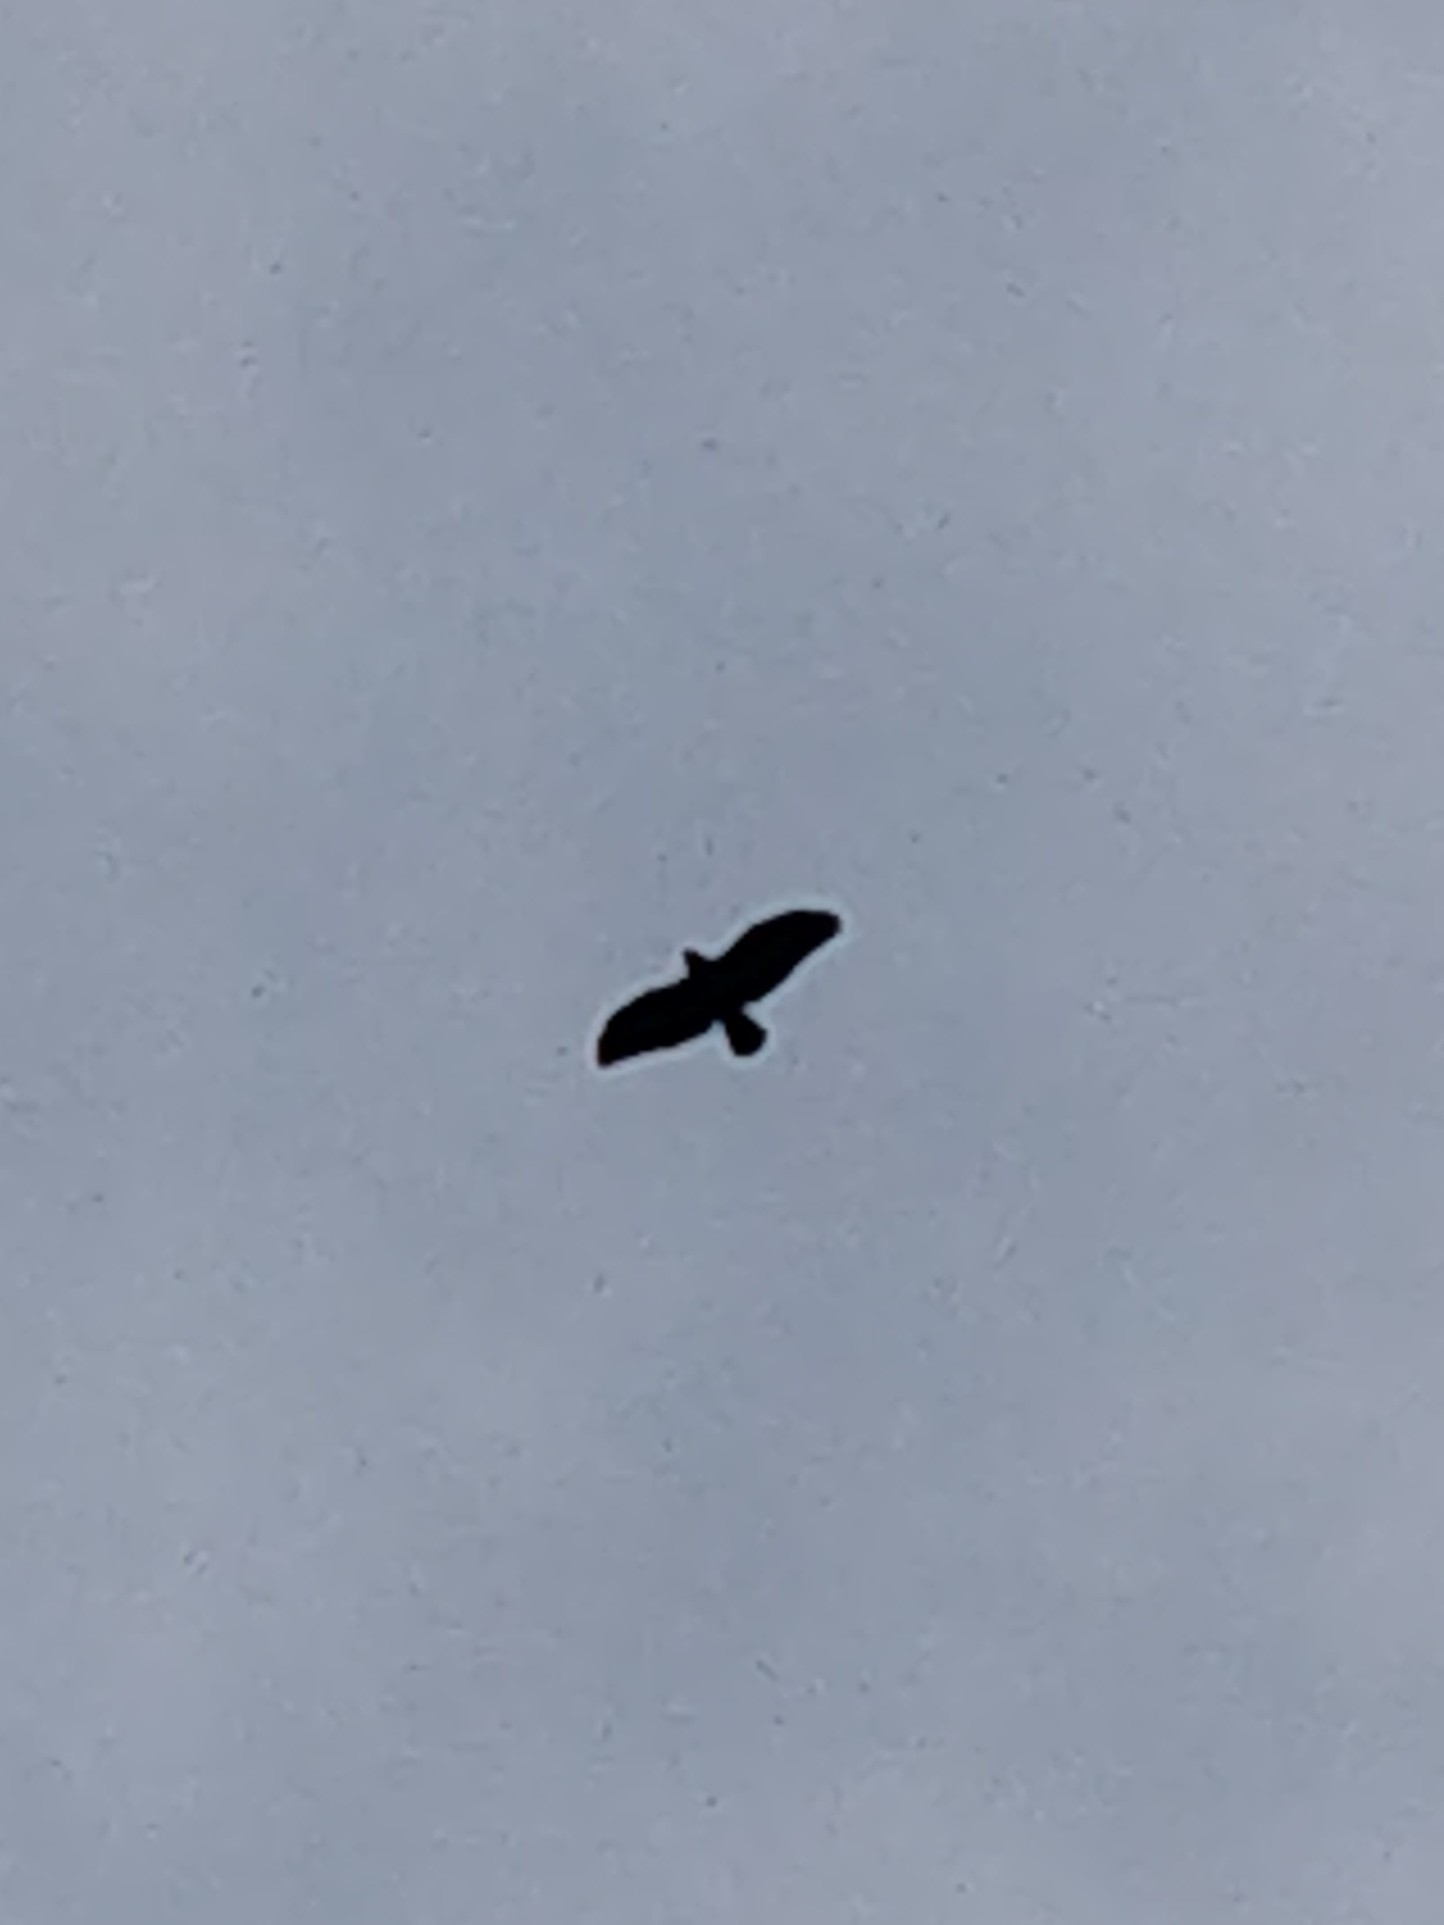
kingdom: Animalia
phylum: Chordata
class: Aves
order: Accipitriformes
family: Accipitridae
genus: Buteo
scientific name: Buteo buteo
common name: Common buzzard
